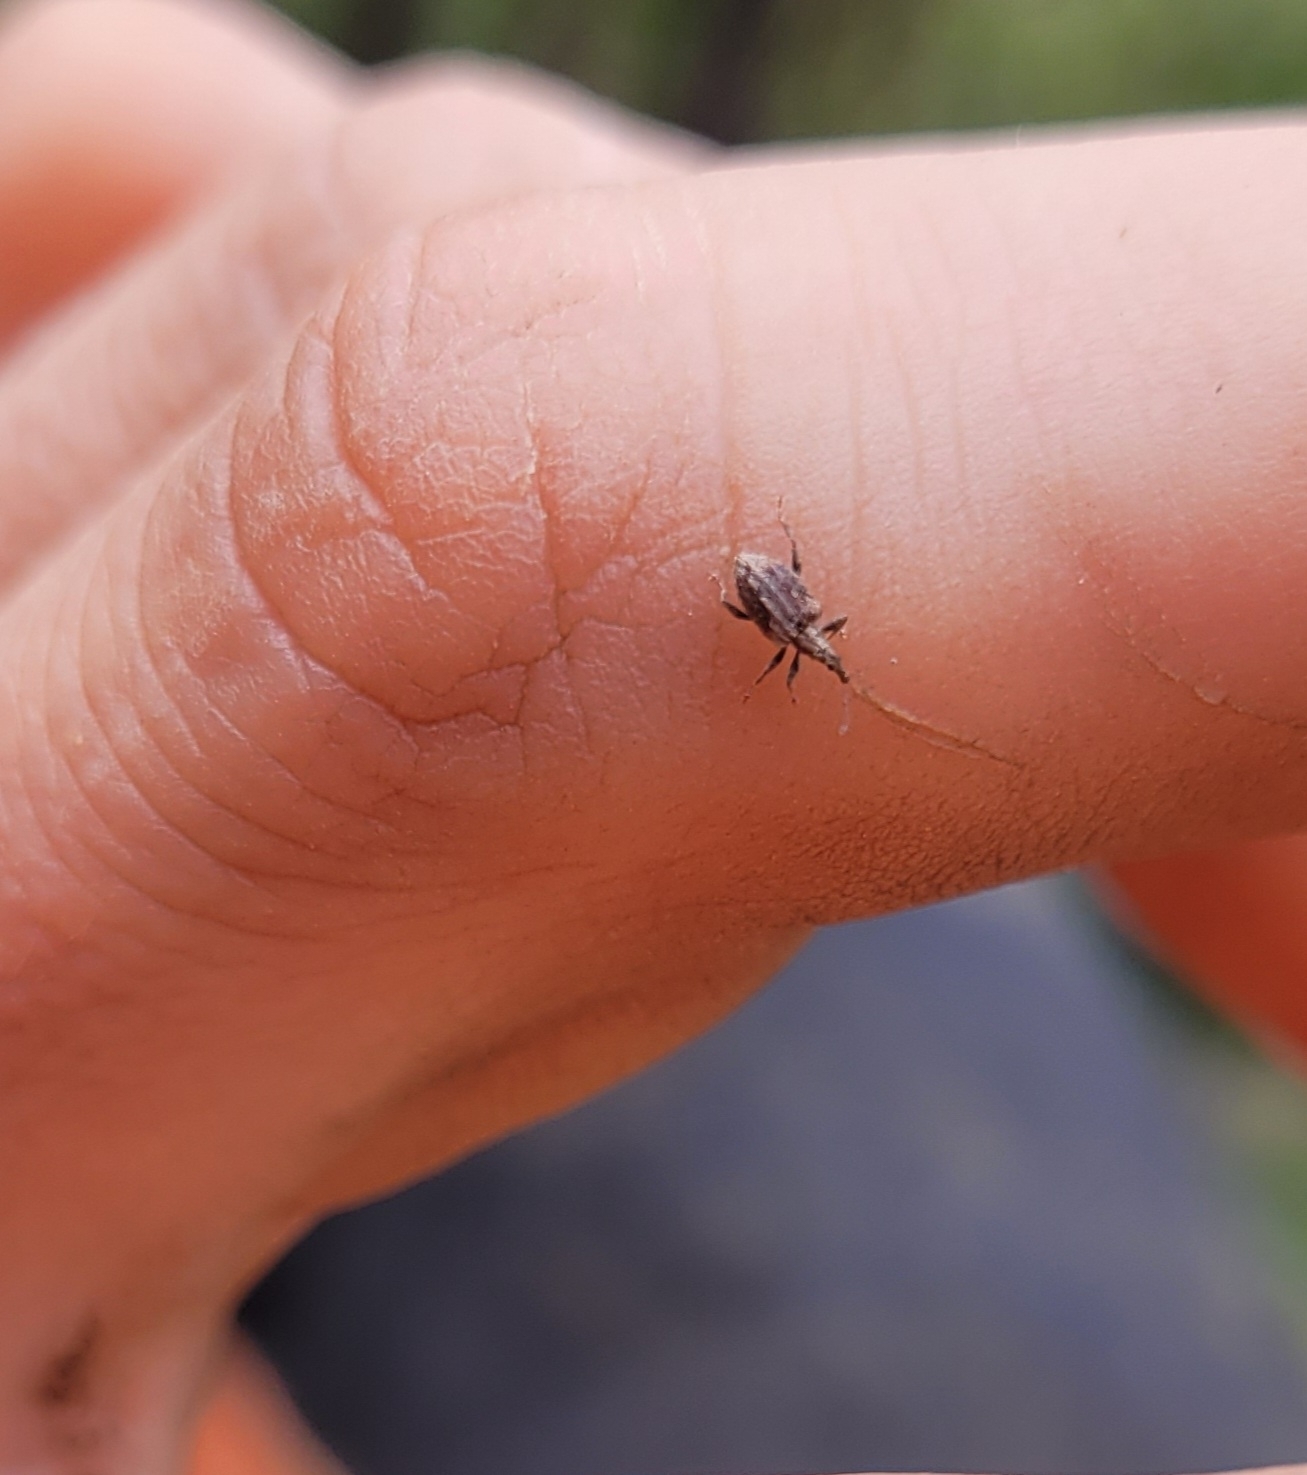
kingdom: Animalia
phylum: Arthropoda
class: Insecta
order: Coleoptera
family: Curculionidae
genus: Tysius
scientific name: Tysius bicornis
